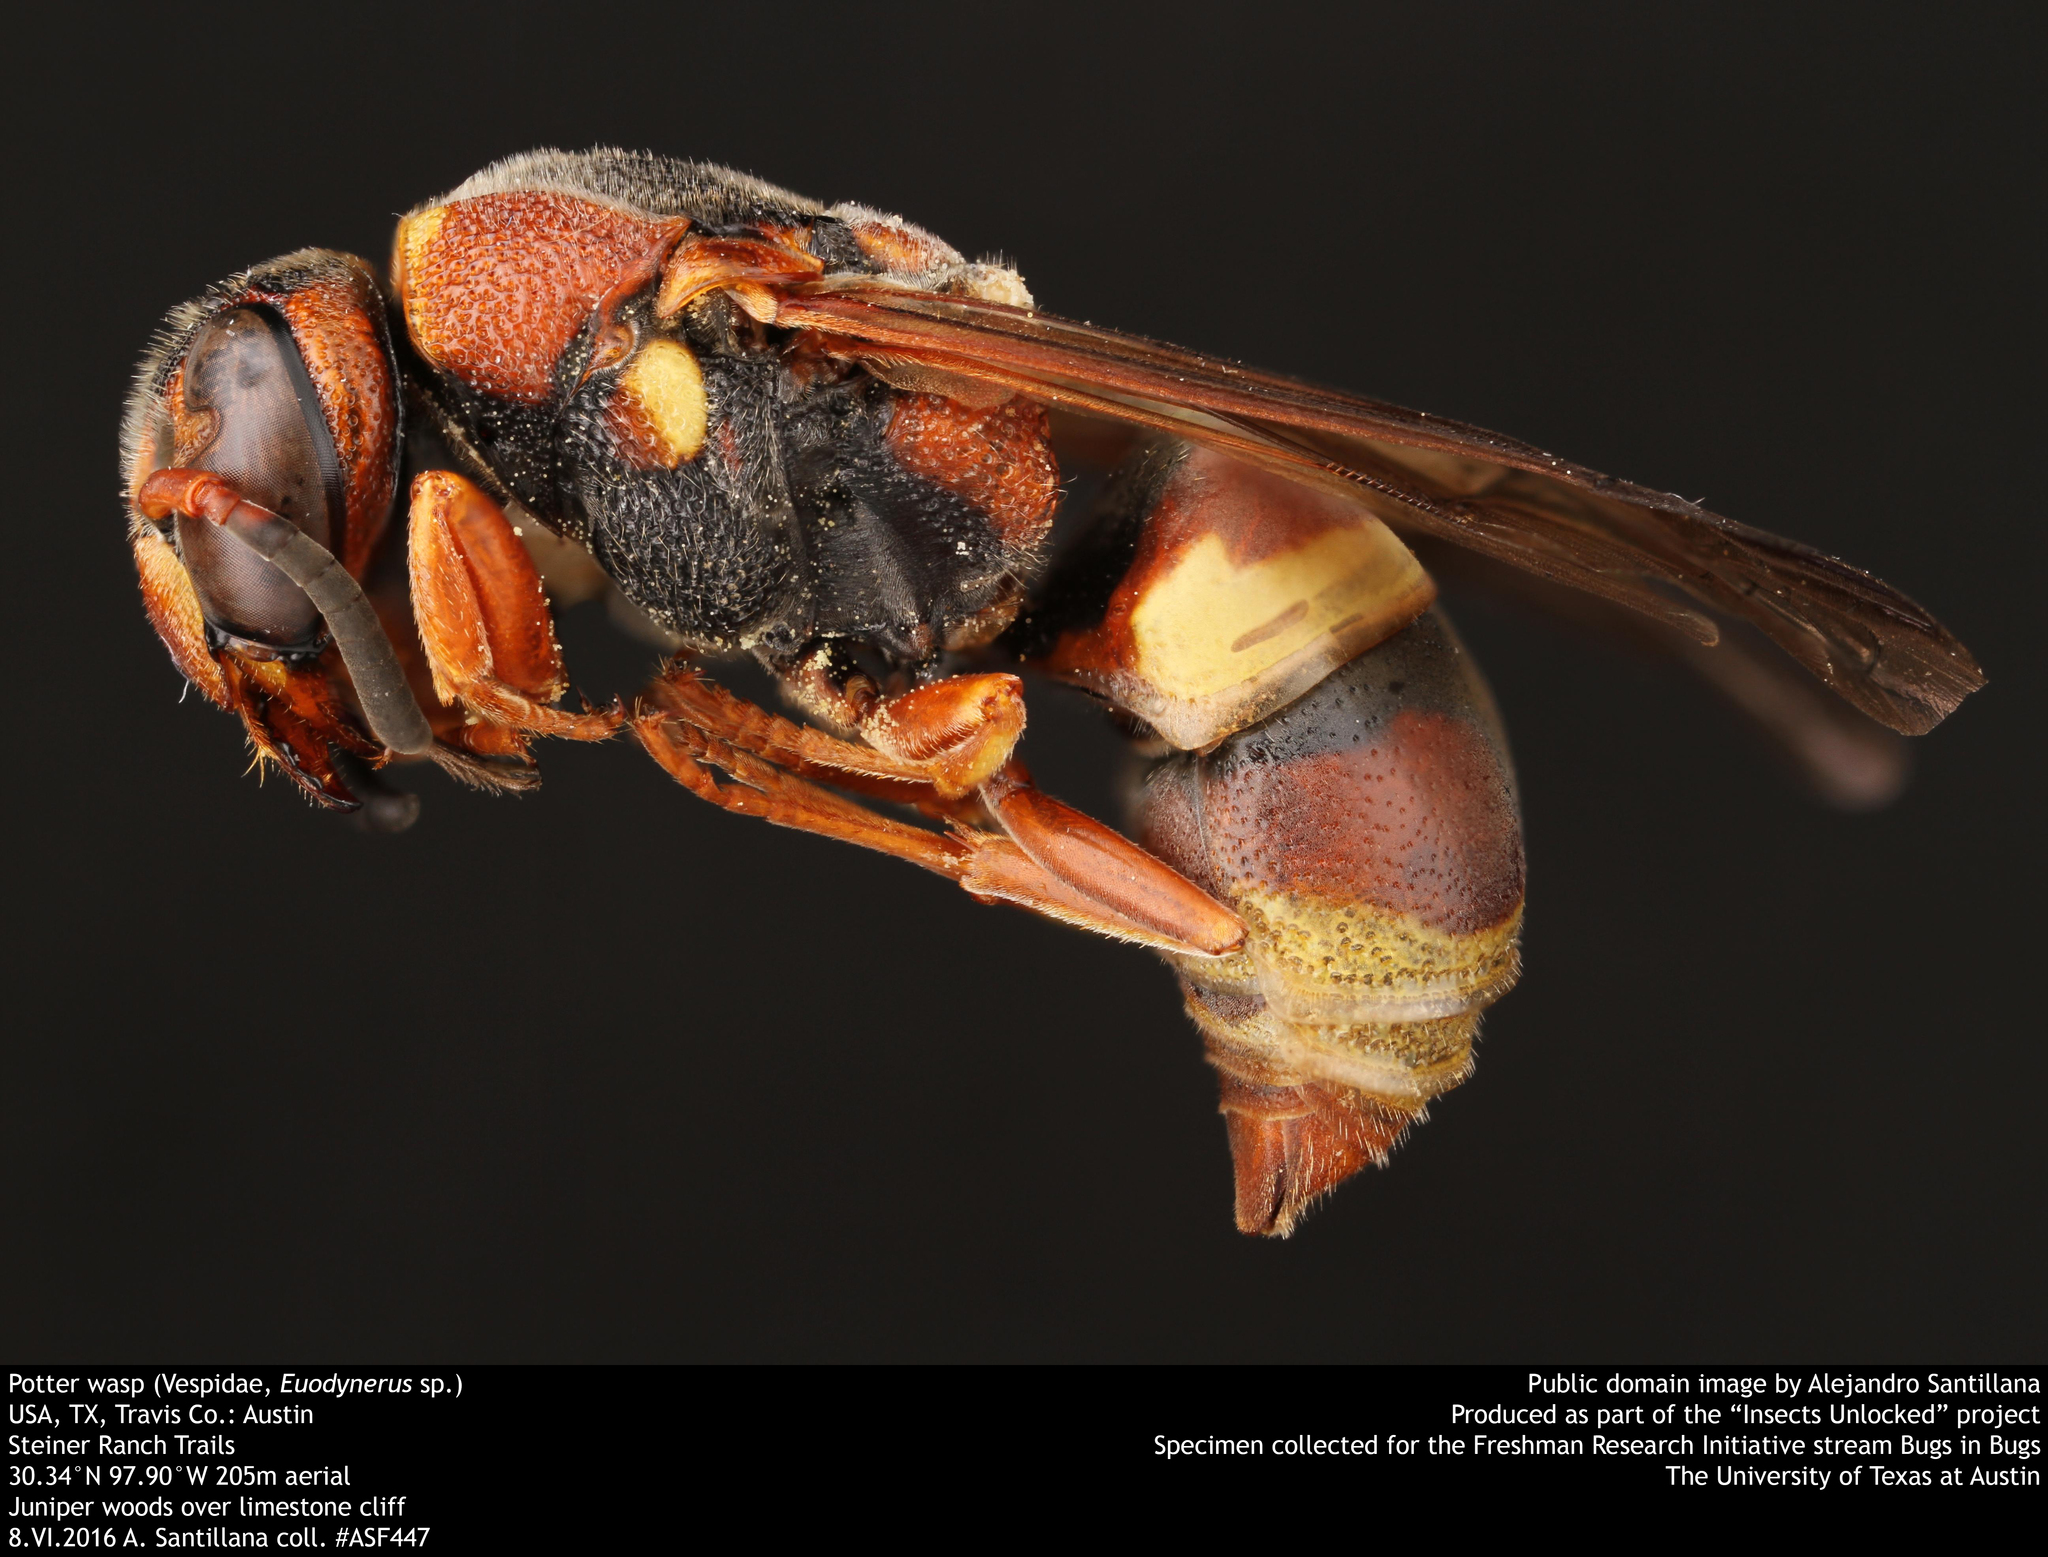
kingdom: Animalia
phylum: Arthropoda
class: Insecta
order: Hymenoptera
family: Eumenidae
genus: Euodynerus
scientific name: Euodynerus hidalgo
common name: Wasp
